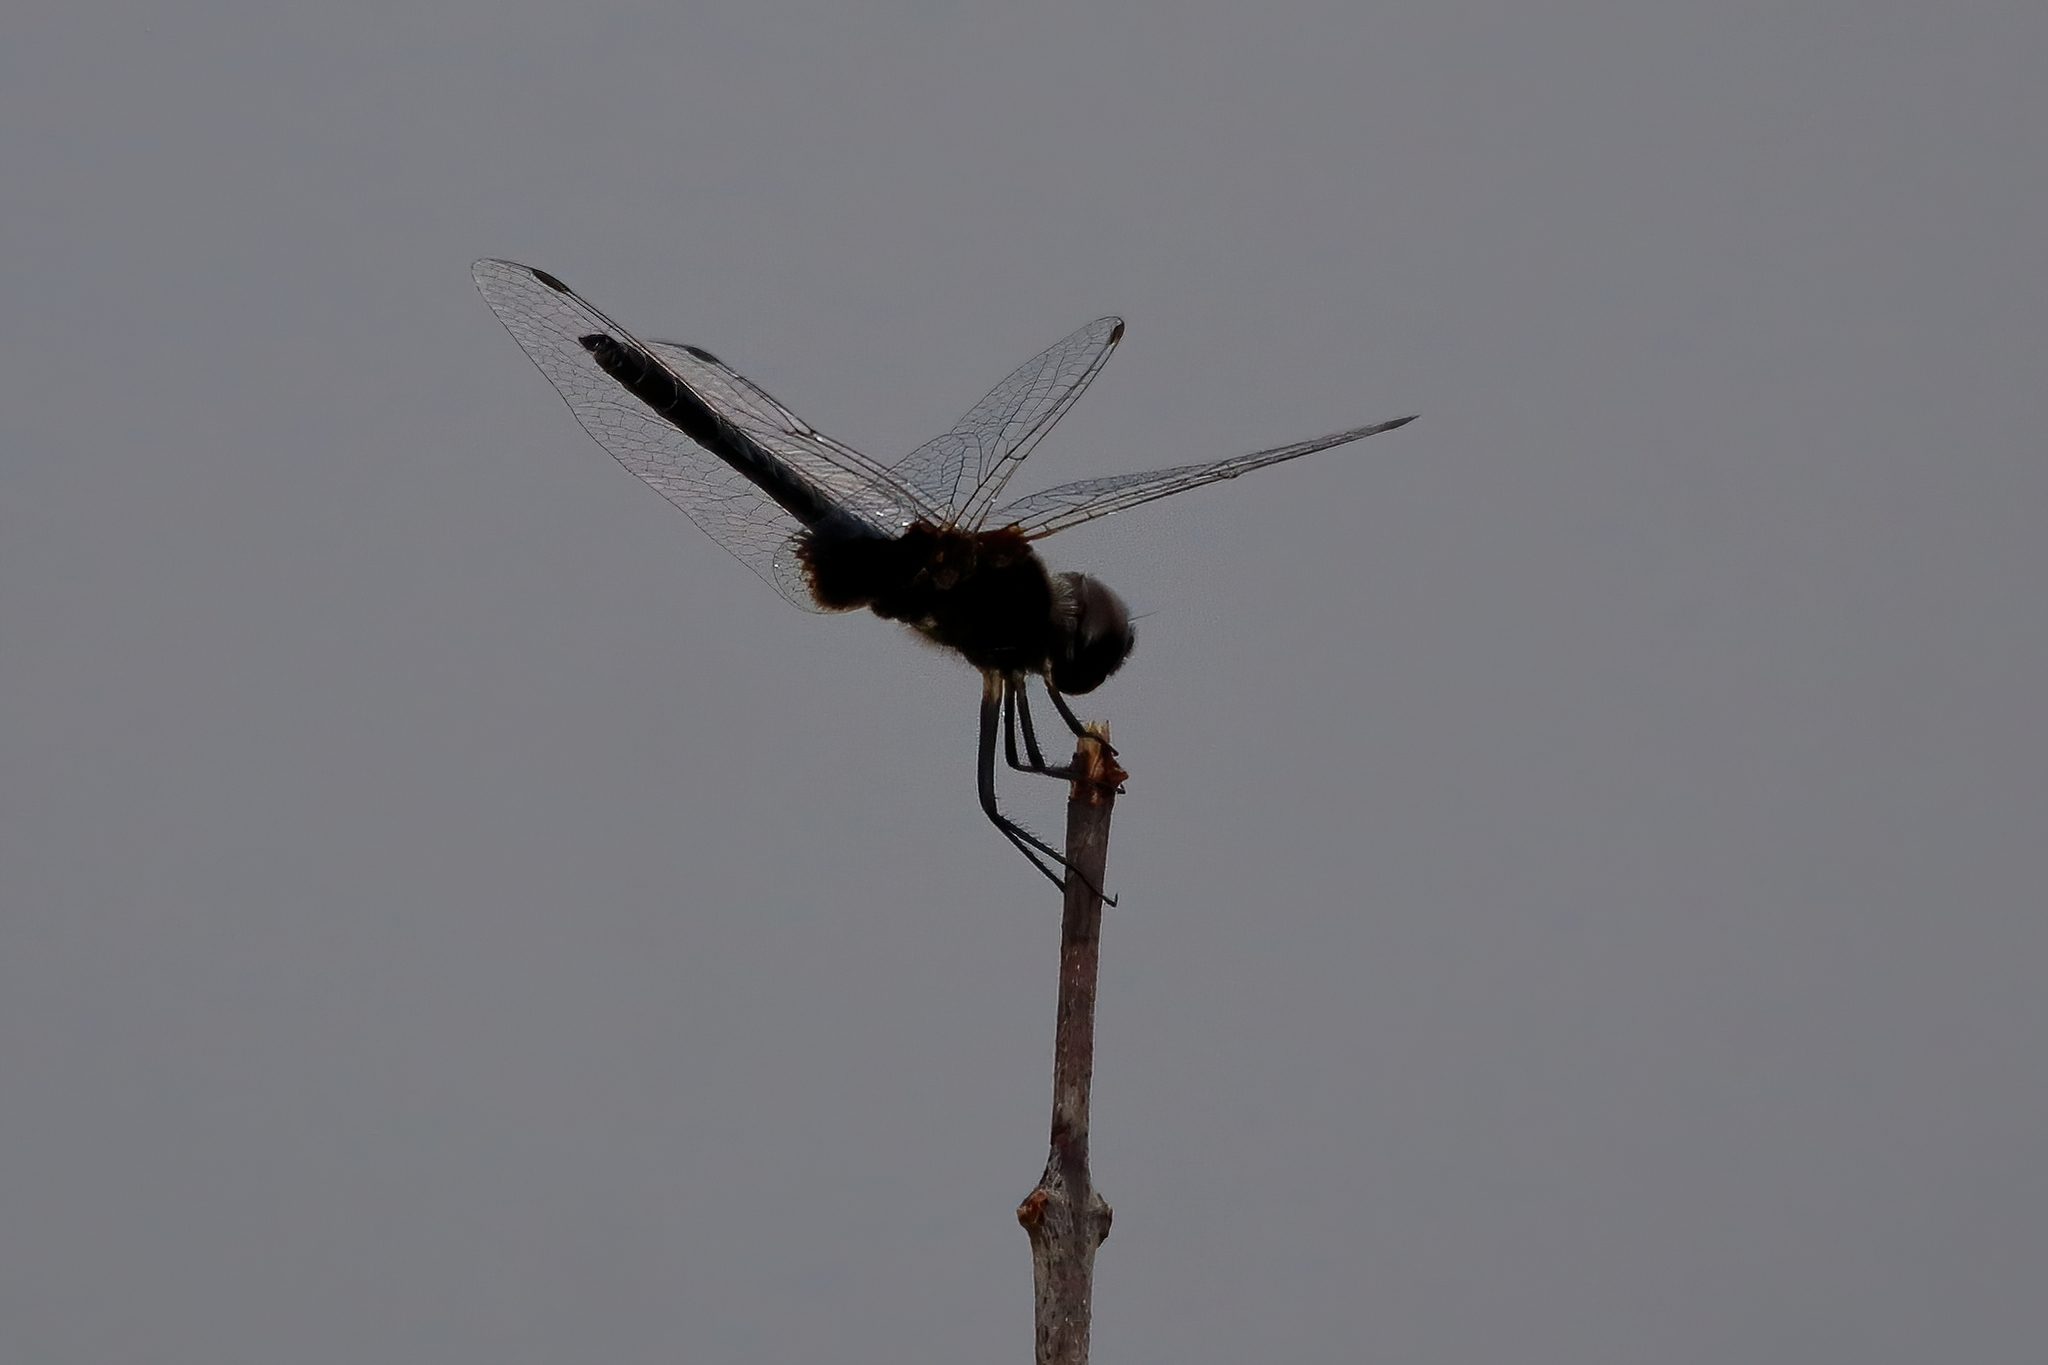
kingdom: Animalia
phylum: Arthropoda
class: Insecta
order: Odonata
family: Libellulidae
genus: Macrodiplax
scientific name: Macrodiplax balteata
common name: Marl pennant
